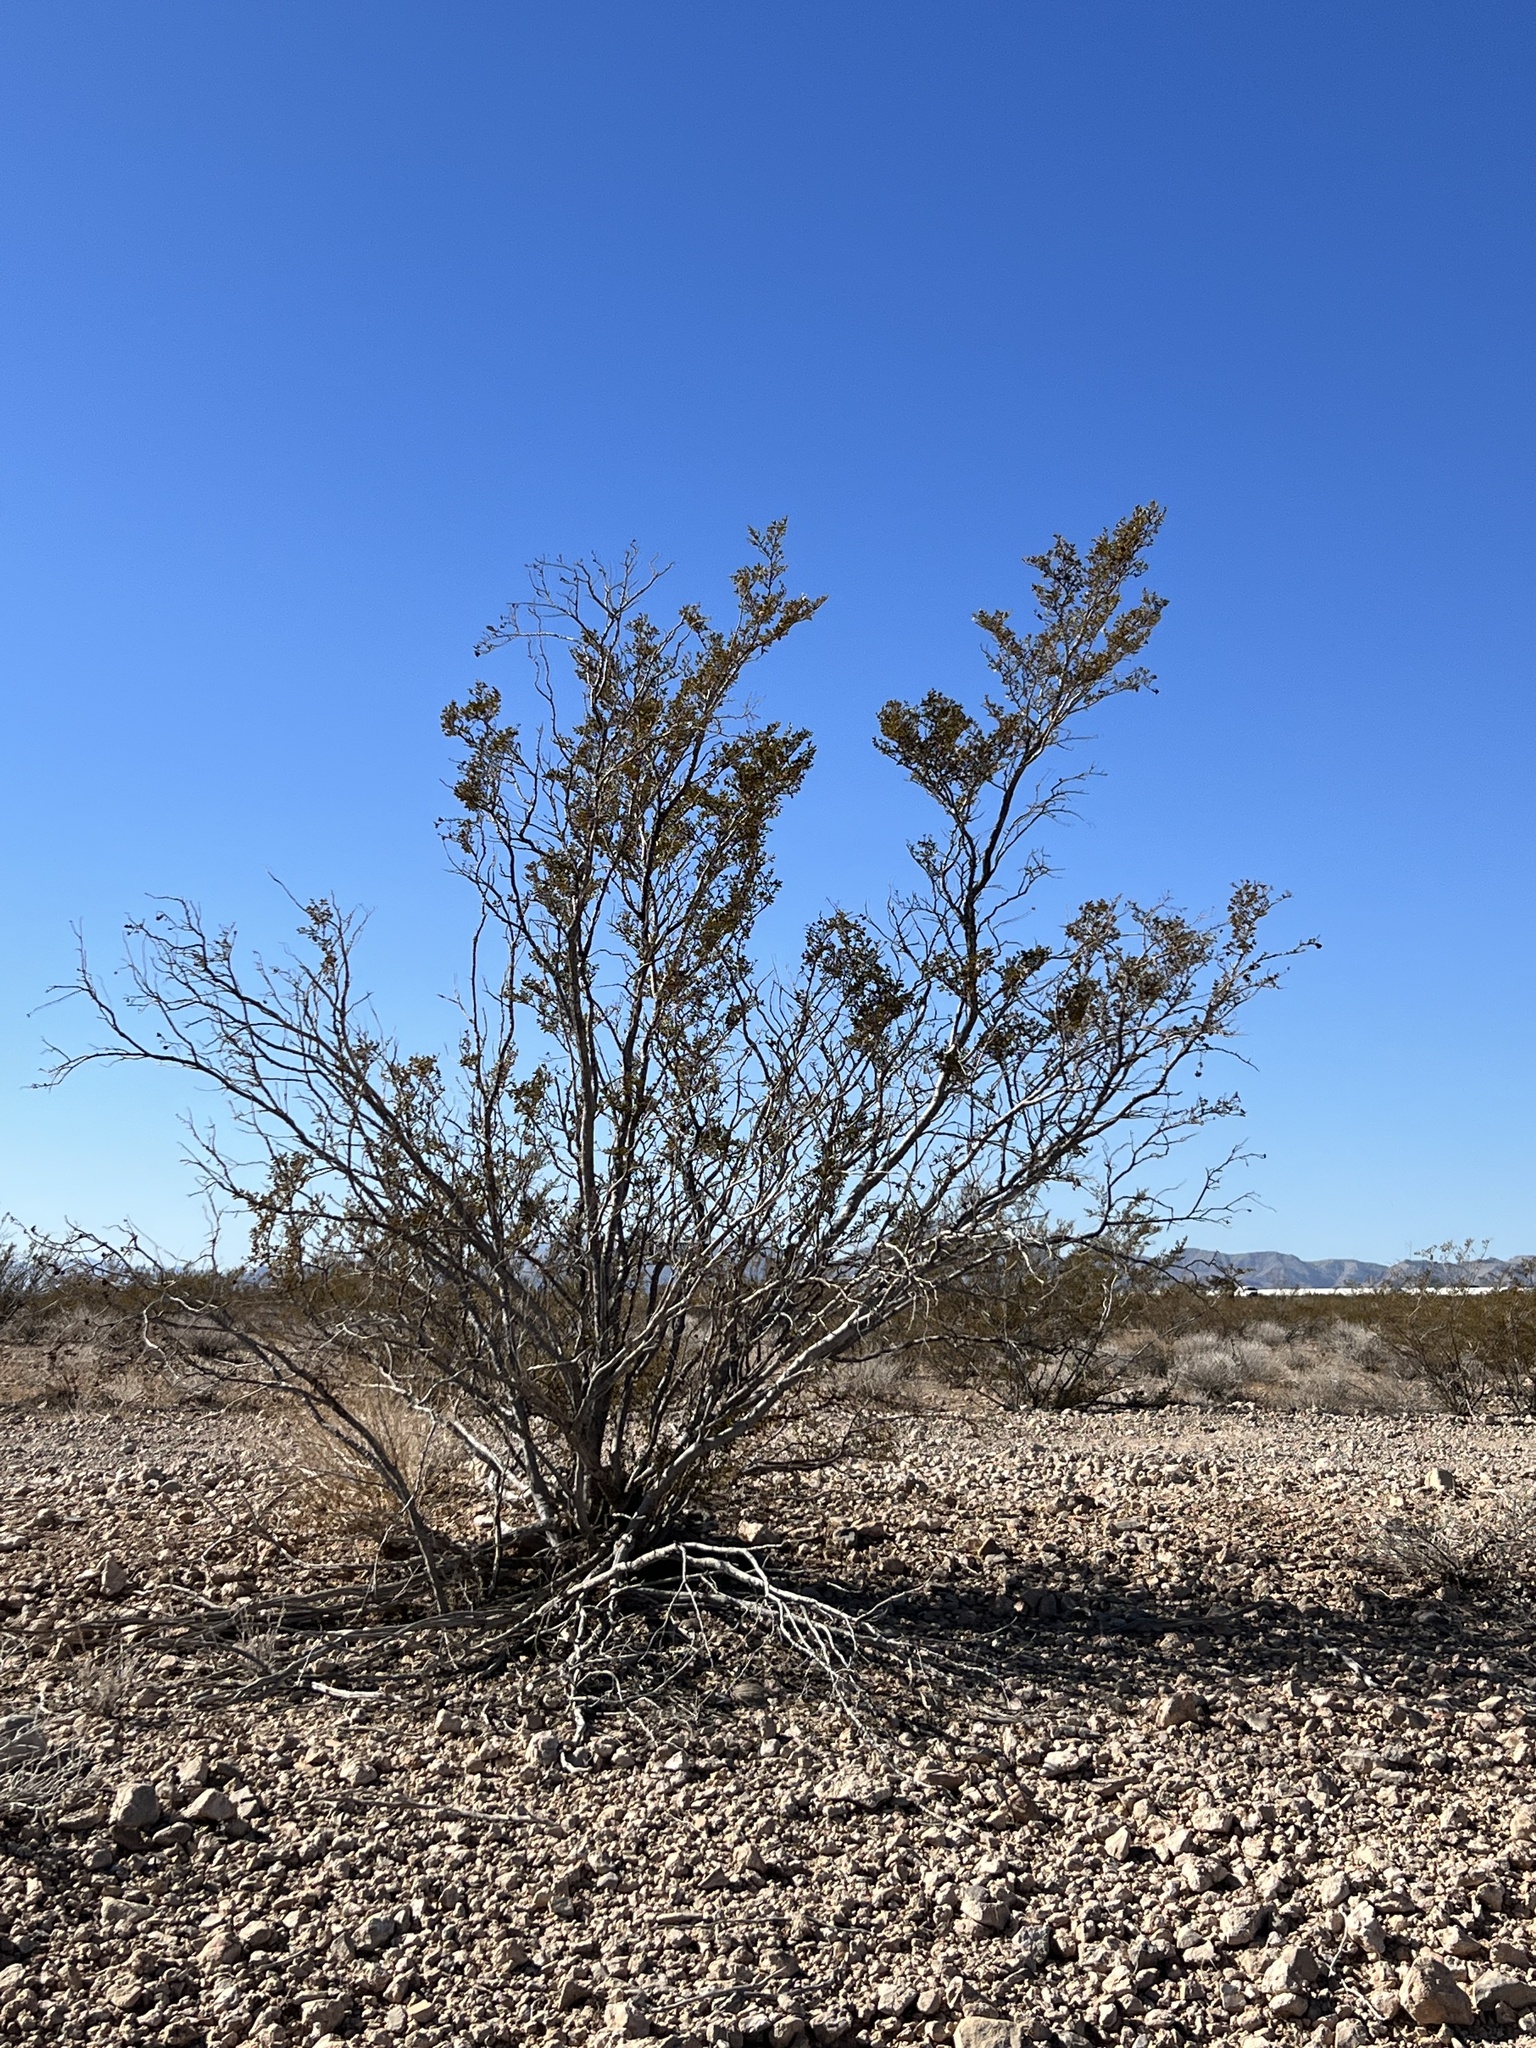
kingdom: Plantae
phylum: Tracheophyta
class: Magnoliopsida
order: Zygophyllales
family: Zygophyllaceae
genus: Larrea
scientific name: Larrea tridentata
